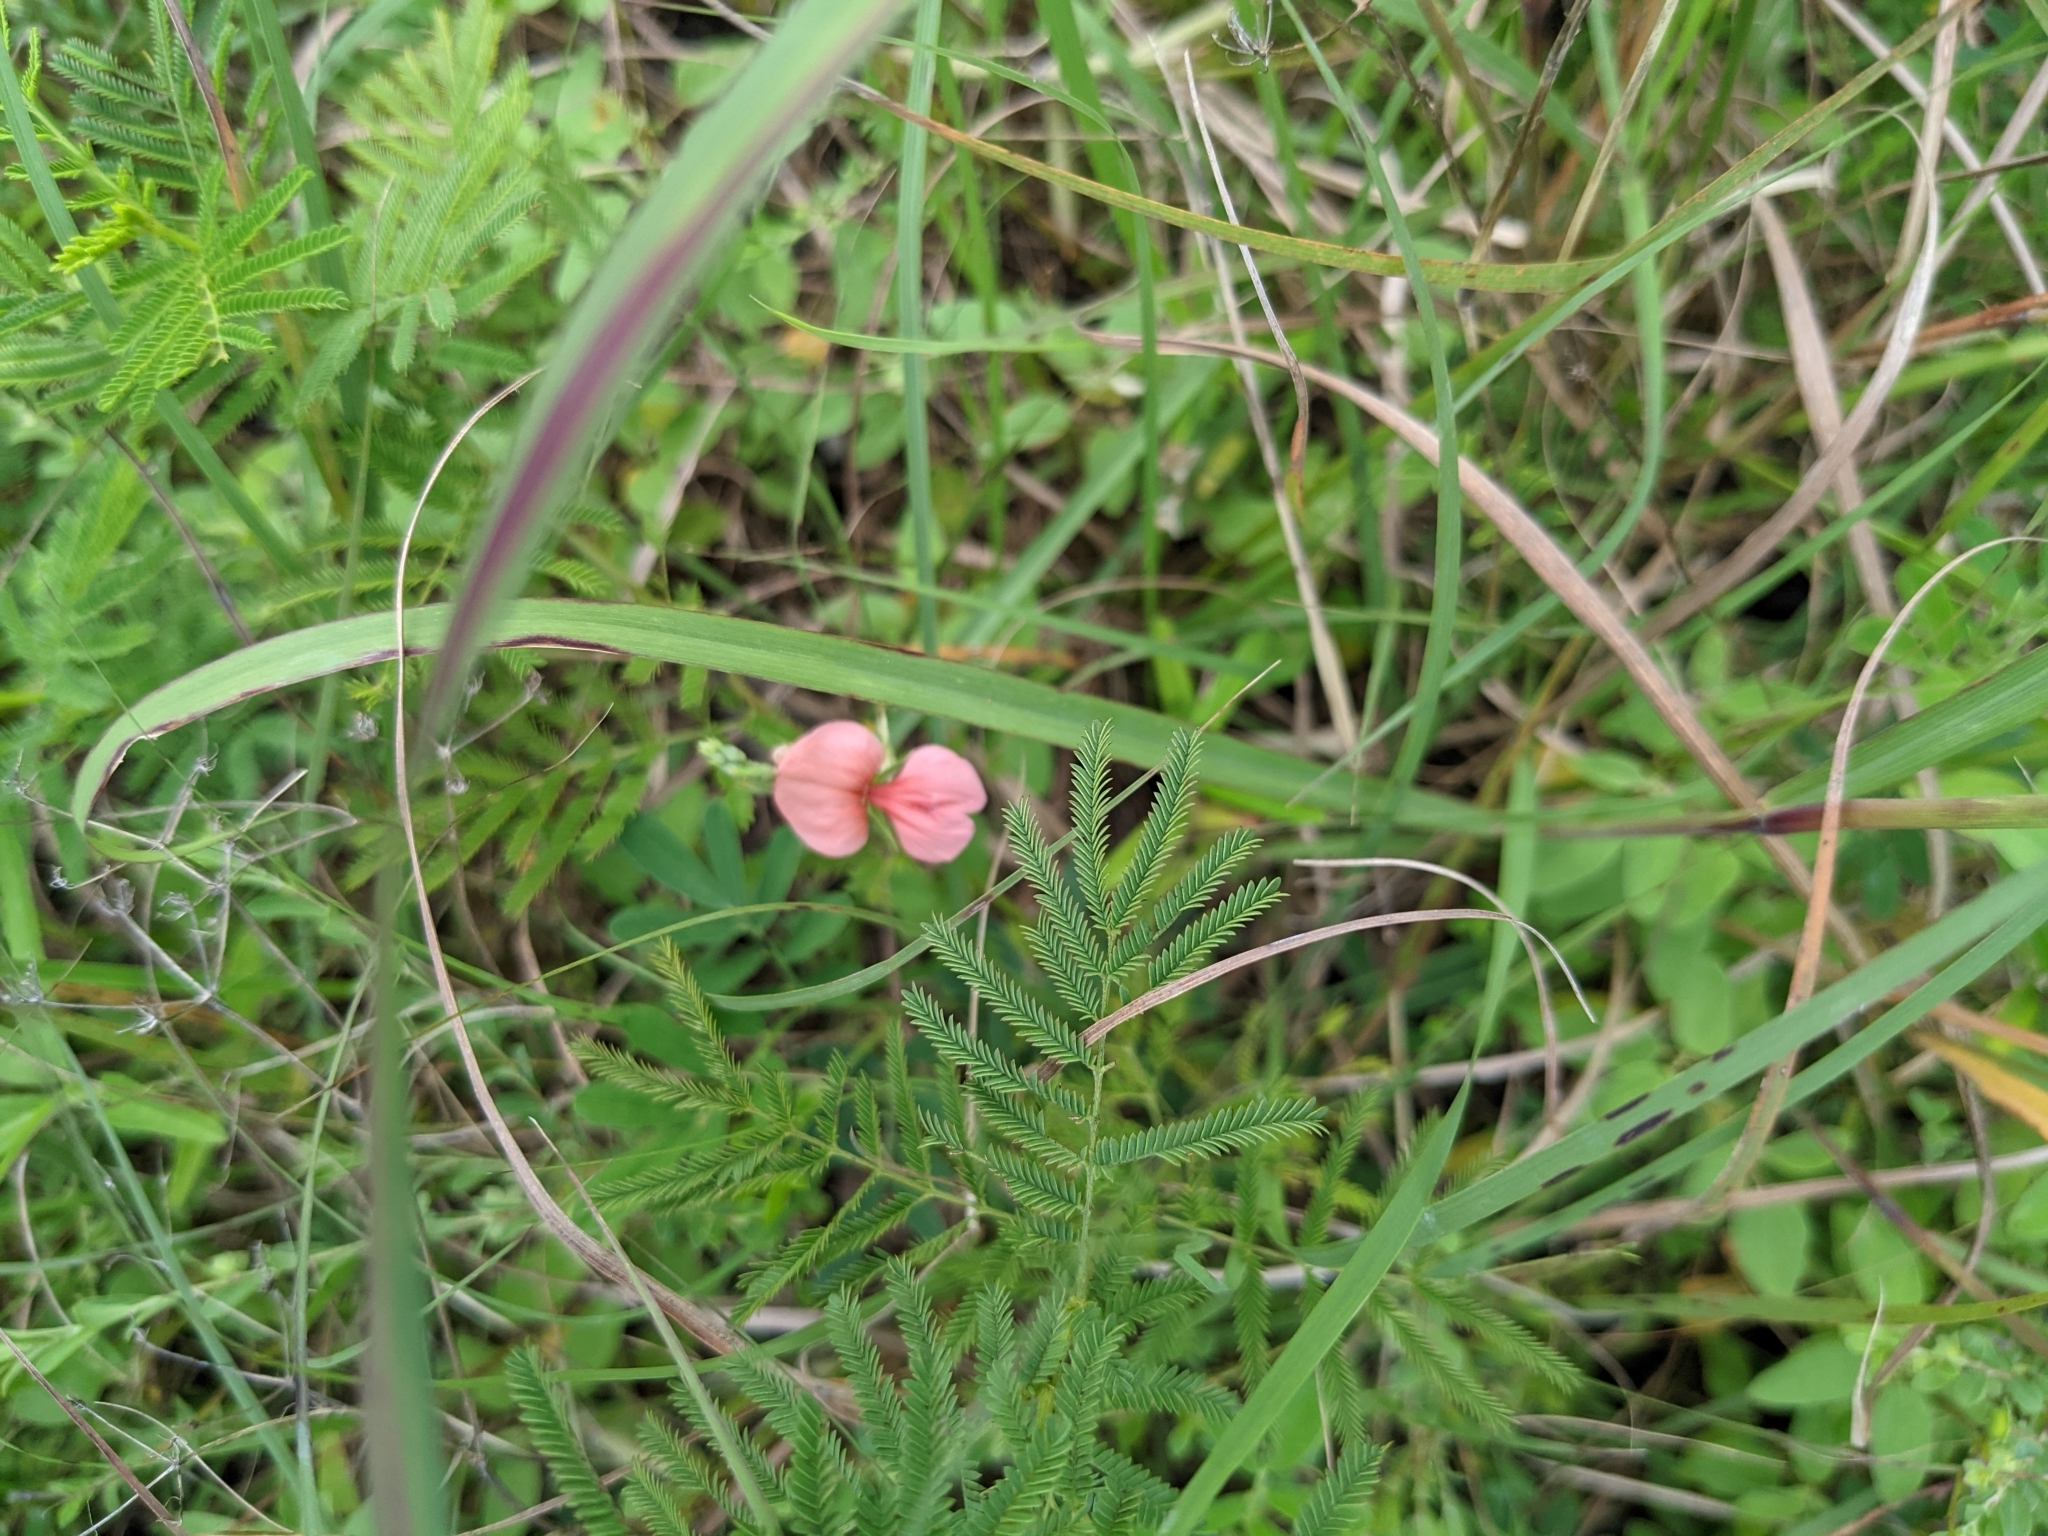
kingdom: Plantae
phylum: Tracheophyta
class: Magnoliopsida
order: Fabales
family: Fabaceae
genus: Indigofera
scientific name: Indigofera miniata
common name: Coast indigo
